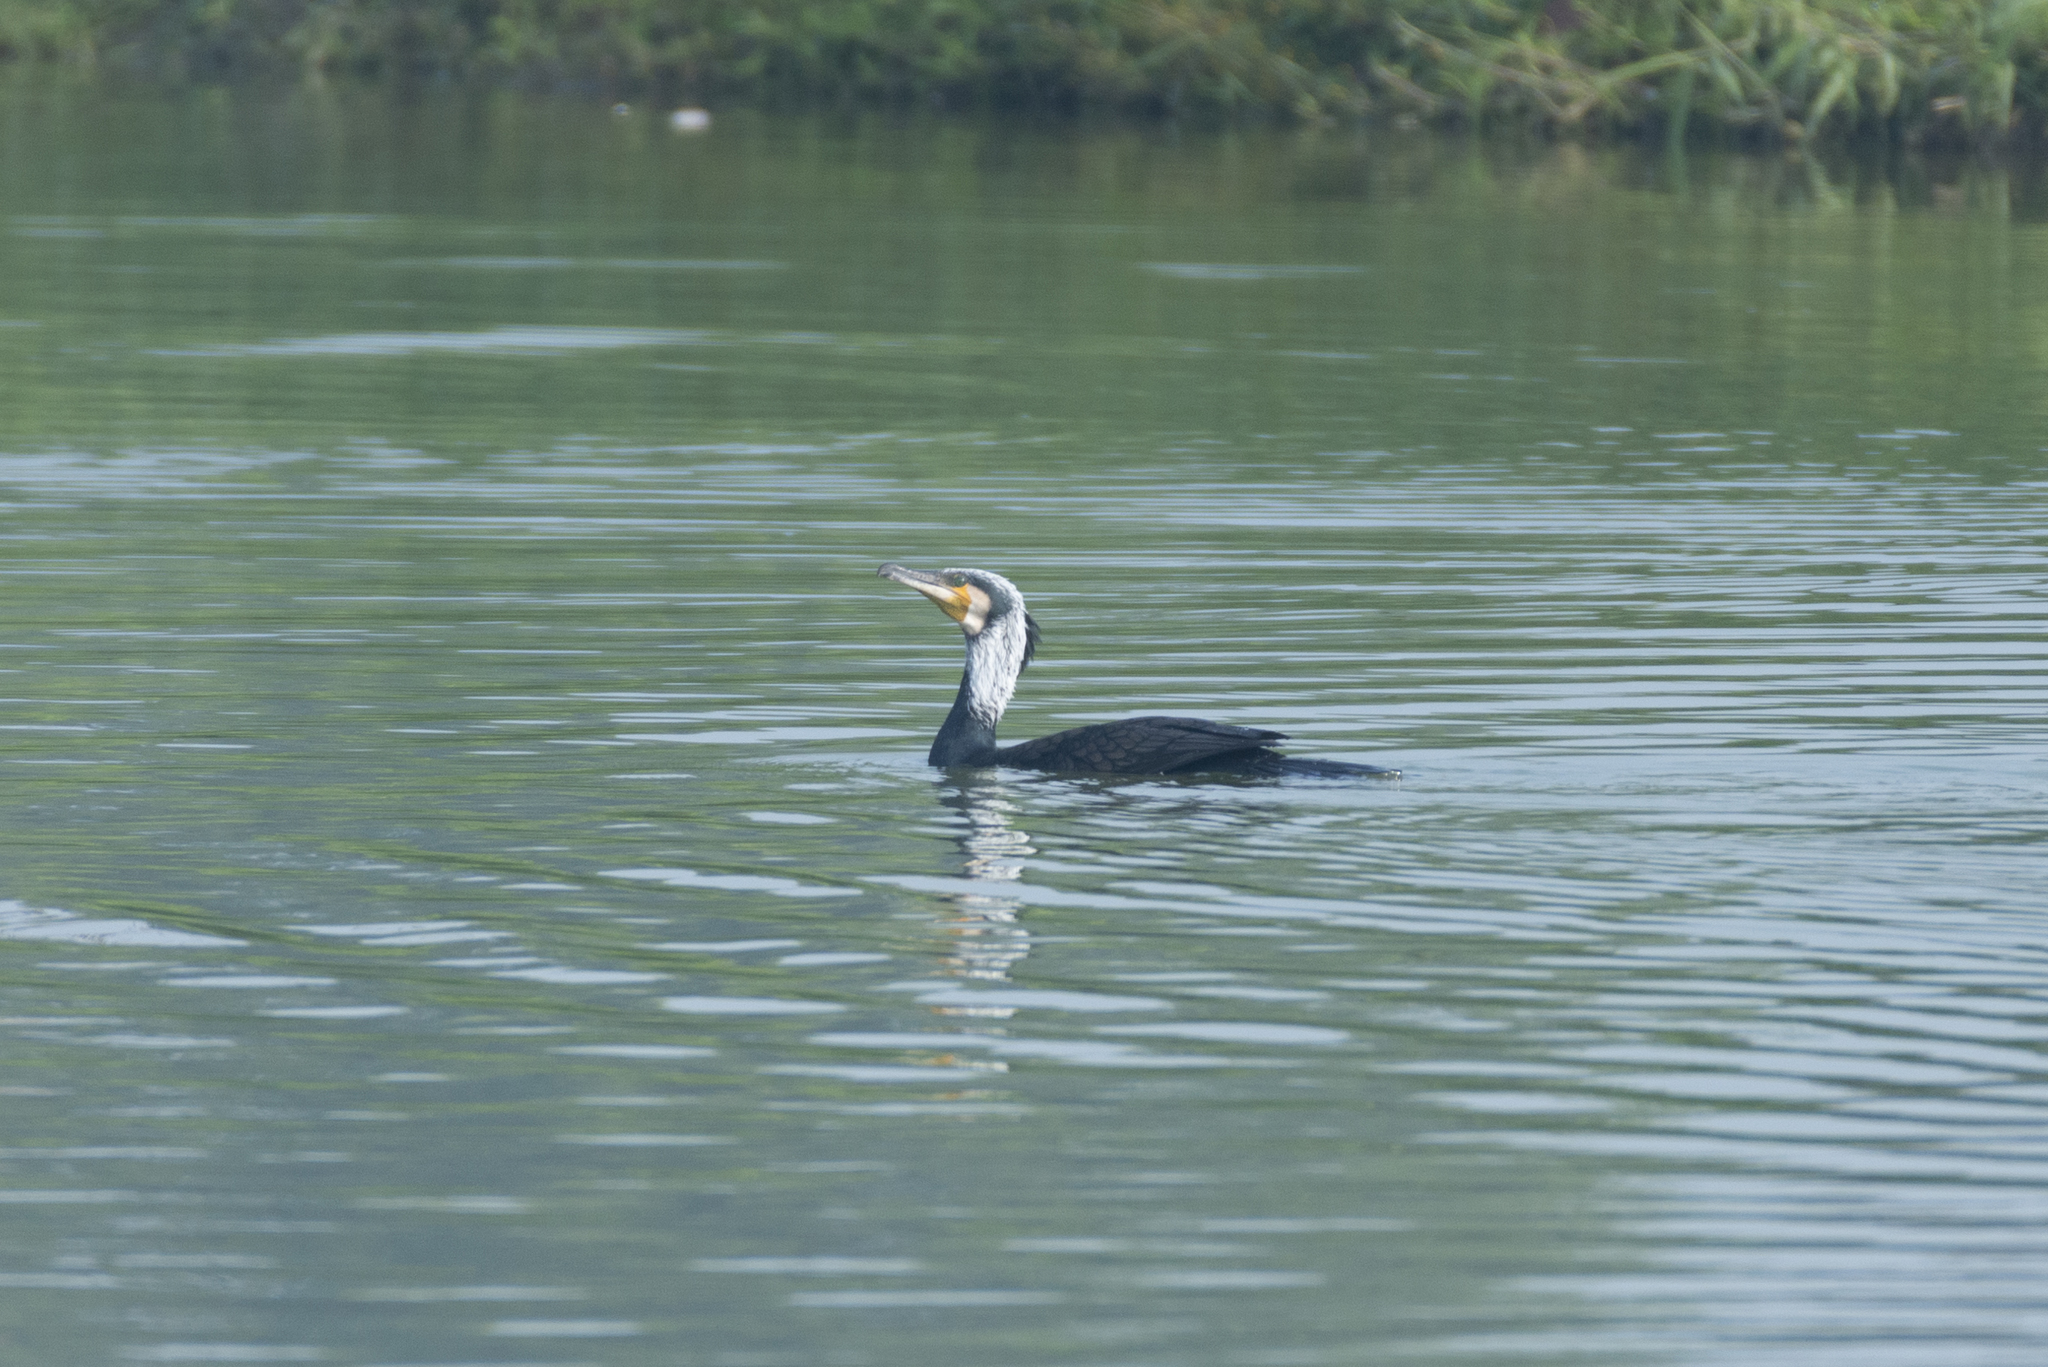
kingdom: Animalia
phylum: Chordata
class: Aves
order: Suliformes
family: Phalacrocoracidae
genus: Phalacrocorax
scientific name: Phalacrocorax carbo
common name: Great cormorant
